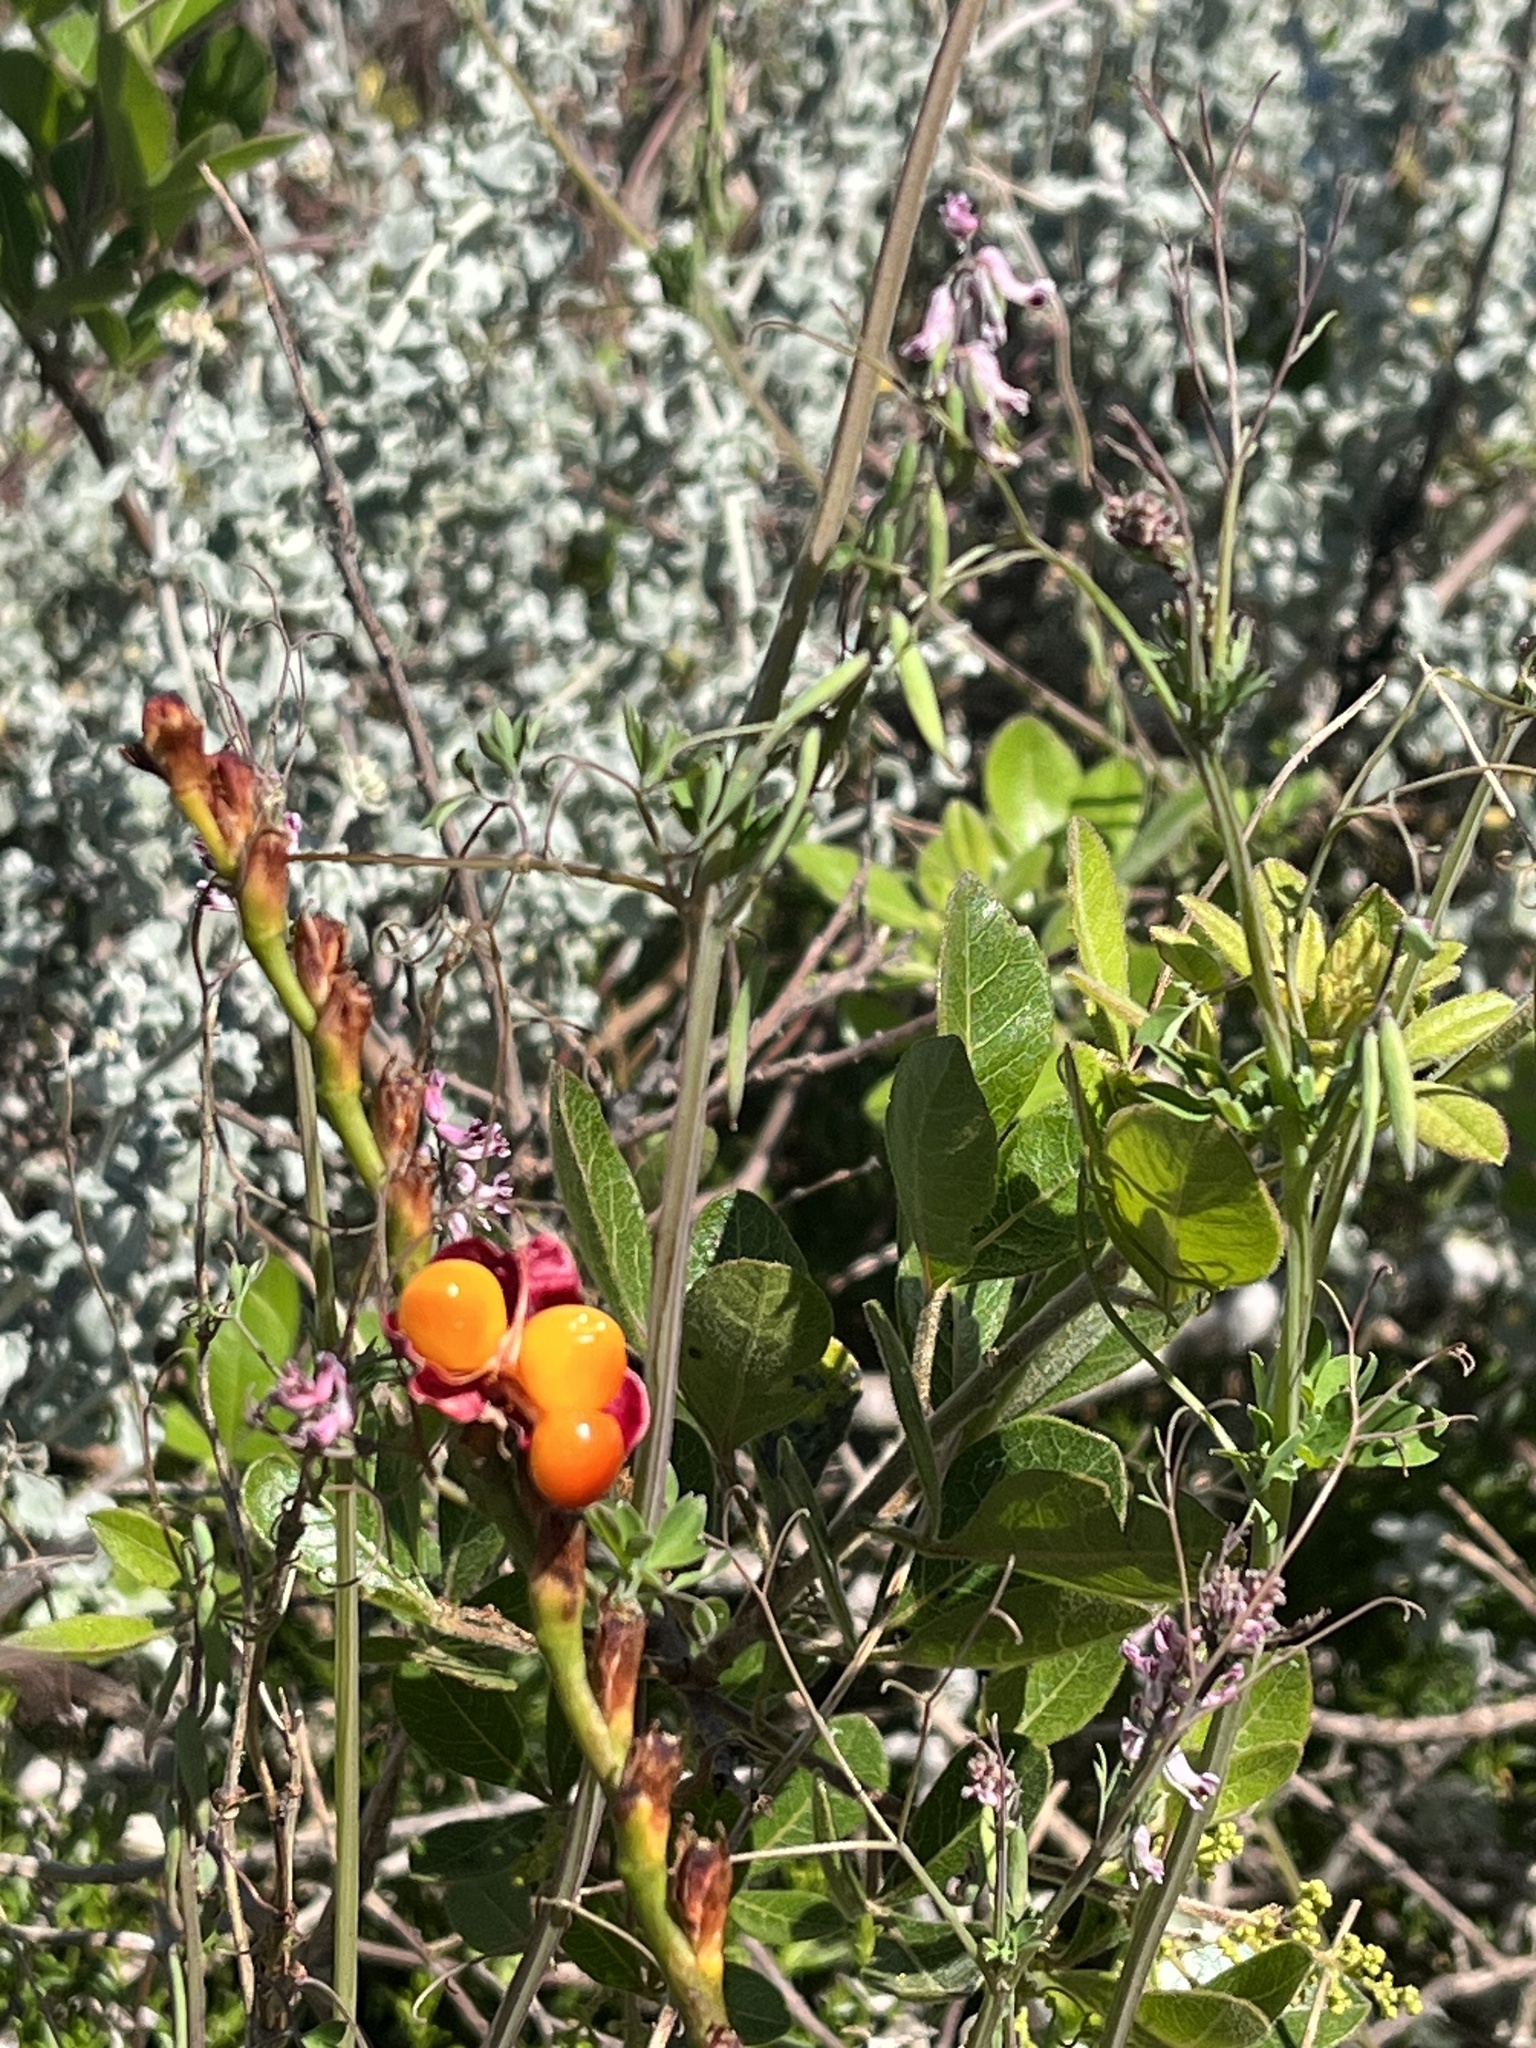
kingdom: Plantae
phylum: Tracheophyta
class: Liliopsida
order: Asparagales
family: Iridaceae
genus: Chasmanthe
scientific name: Chasmanthe aethiopica
